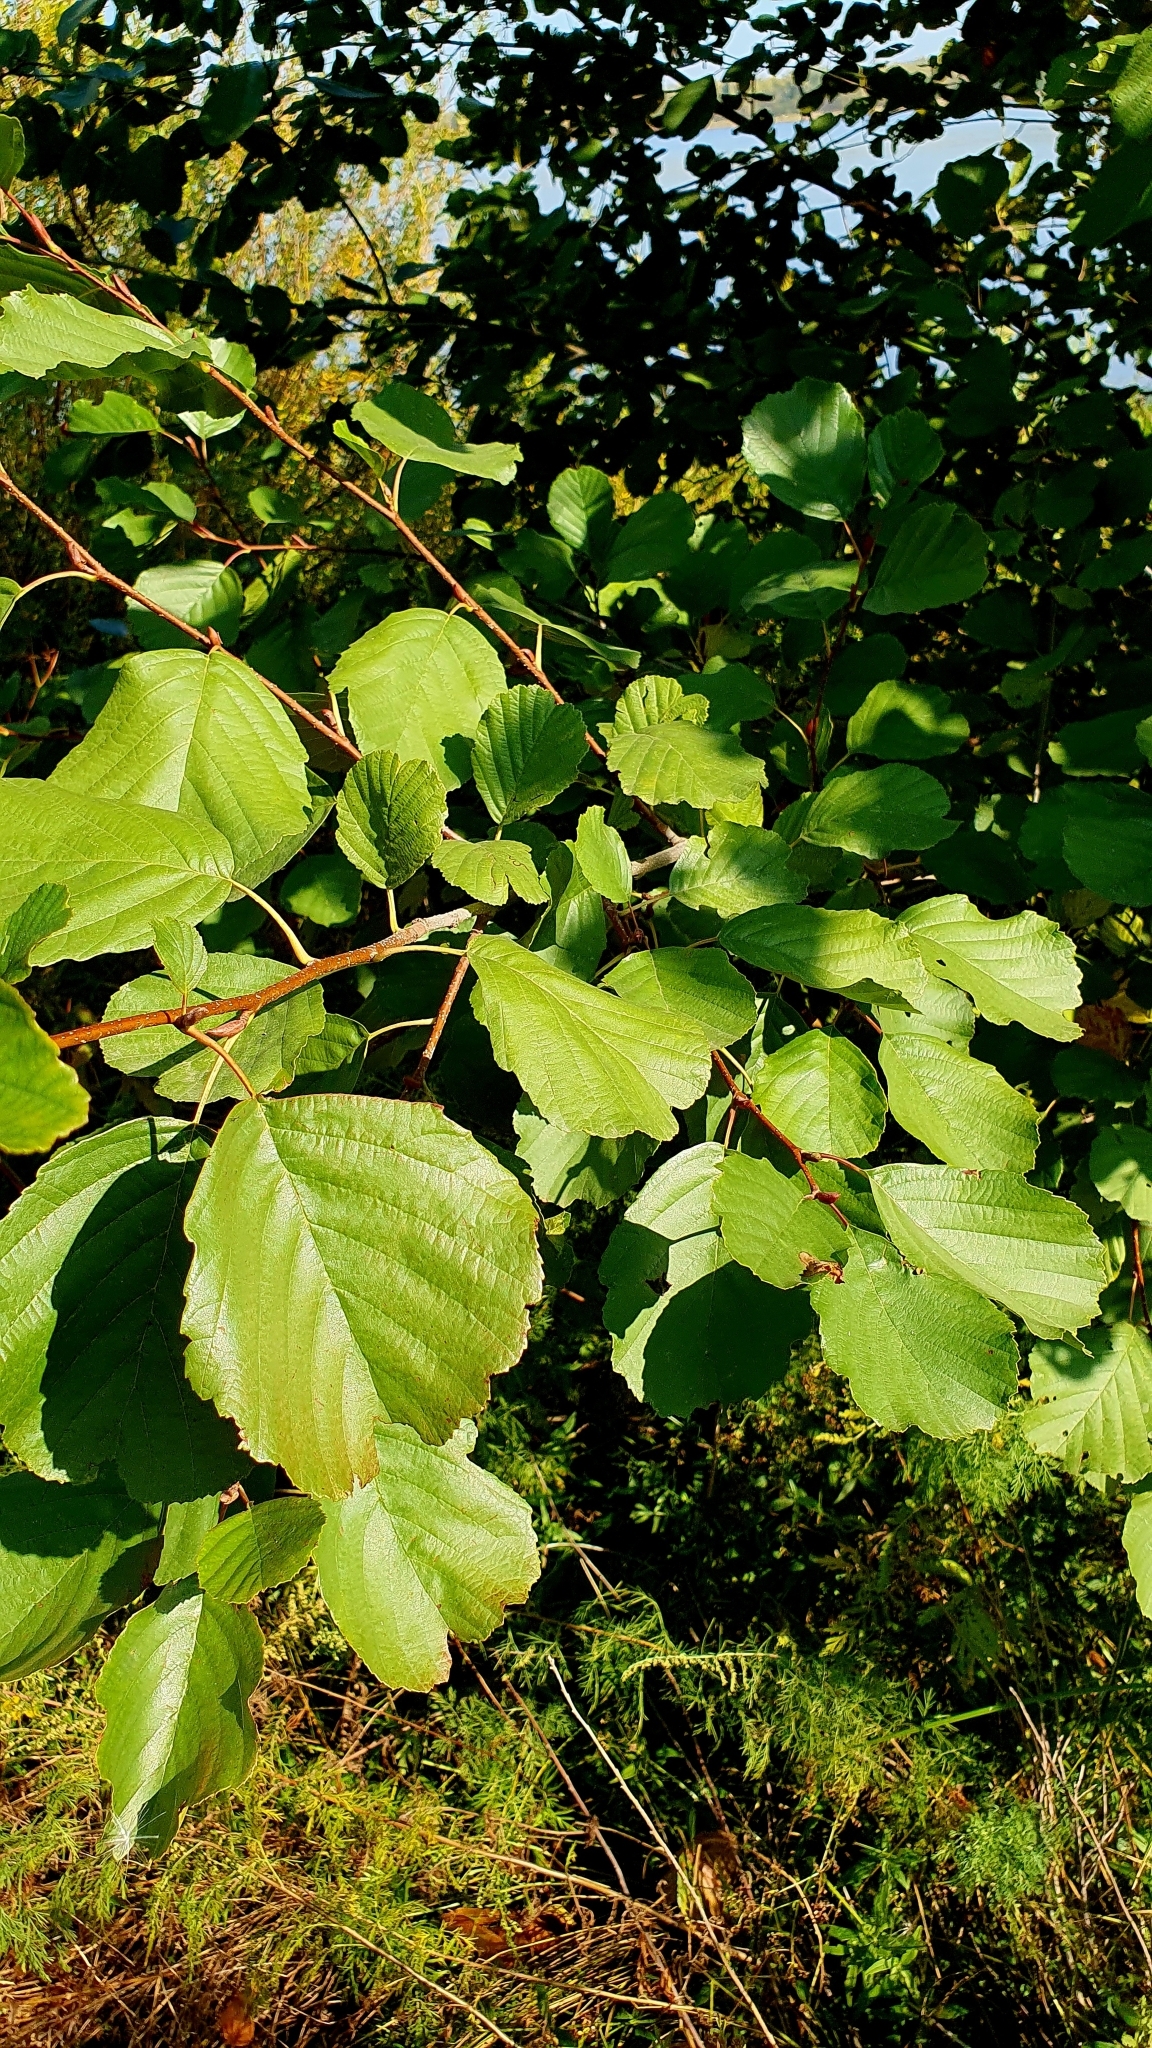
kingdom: Plantae
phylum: Tracheophyta
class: Magnoliopsida
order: Fagales
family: Betulaceae
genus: Alnus
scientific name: Alnus glutinosa
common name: Black alder
